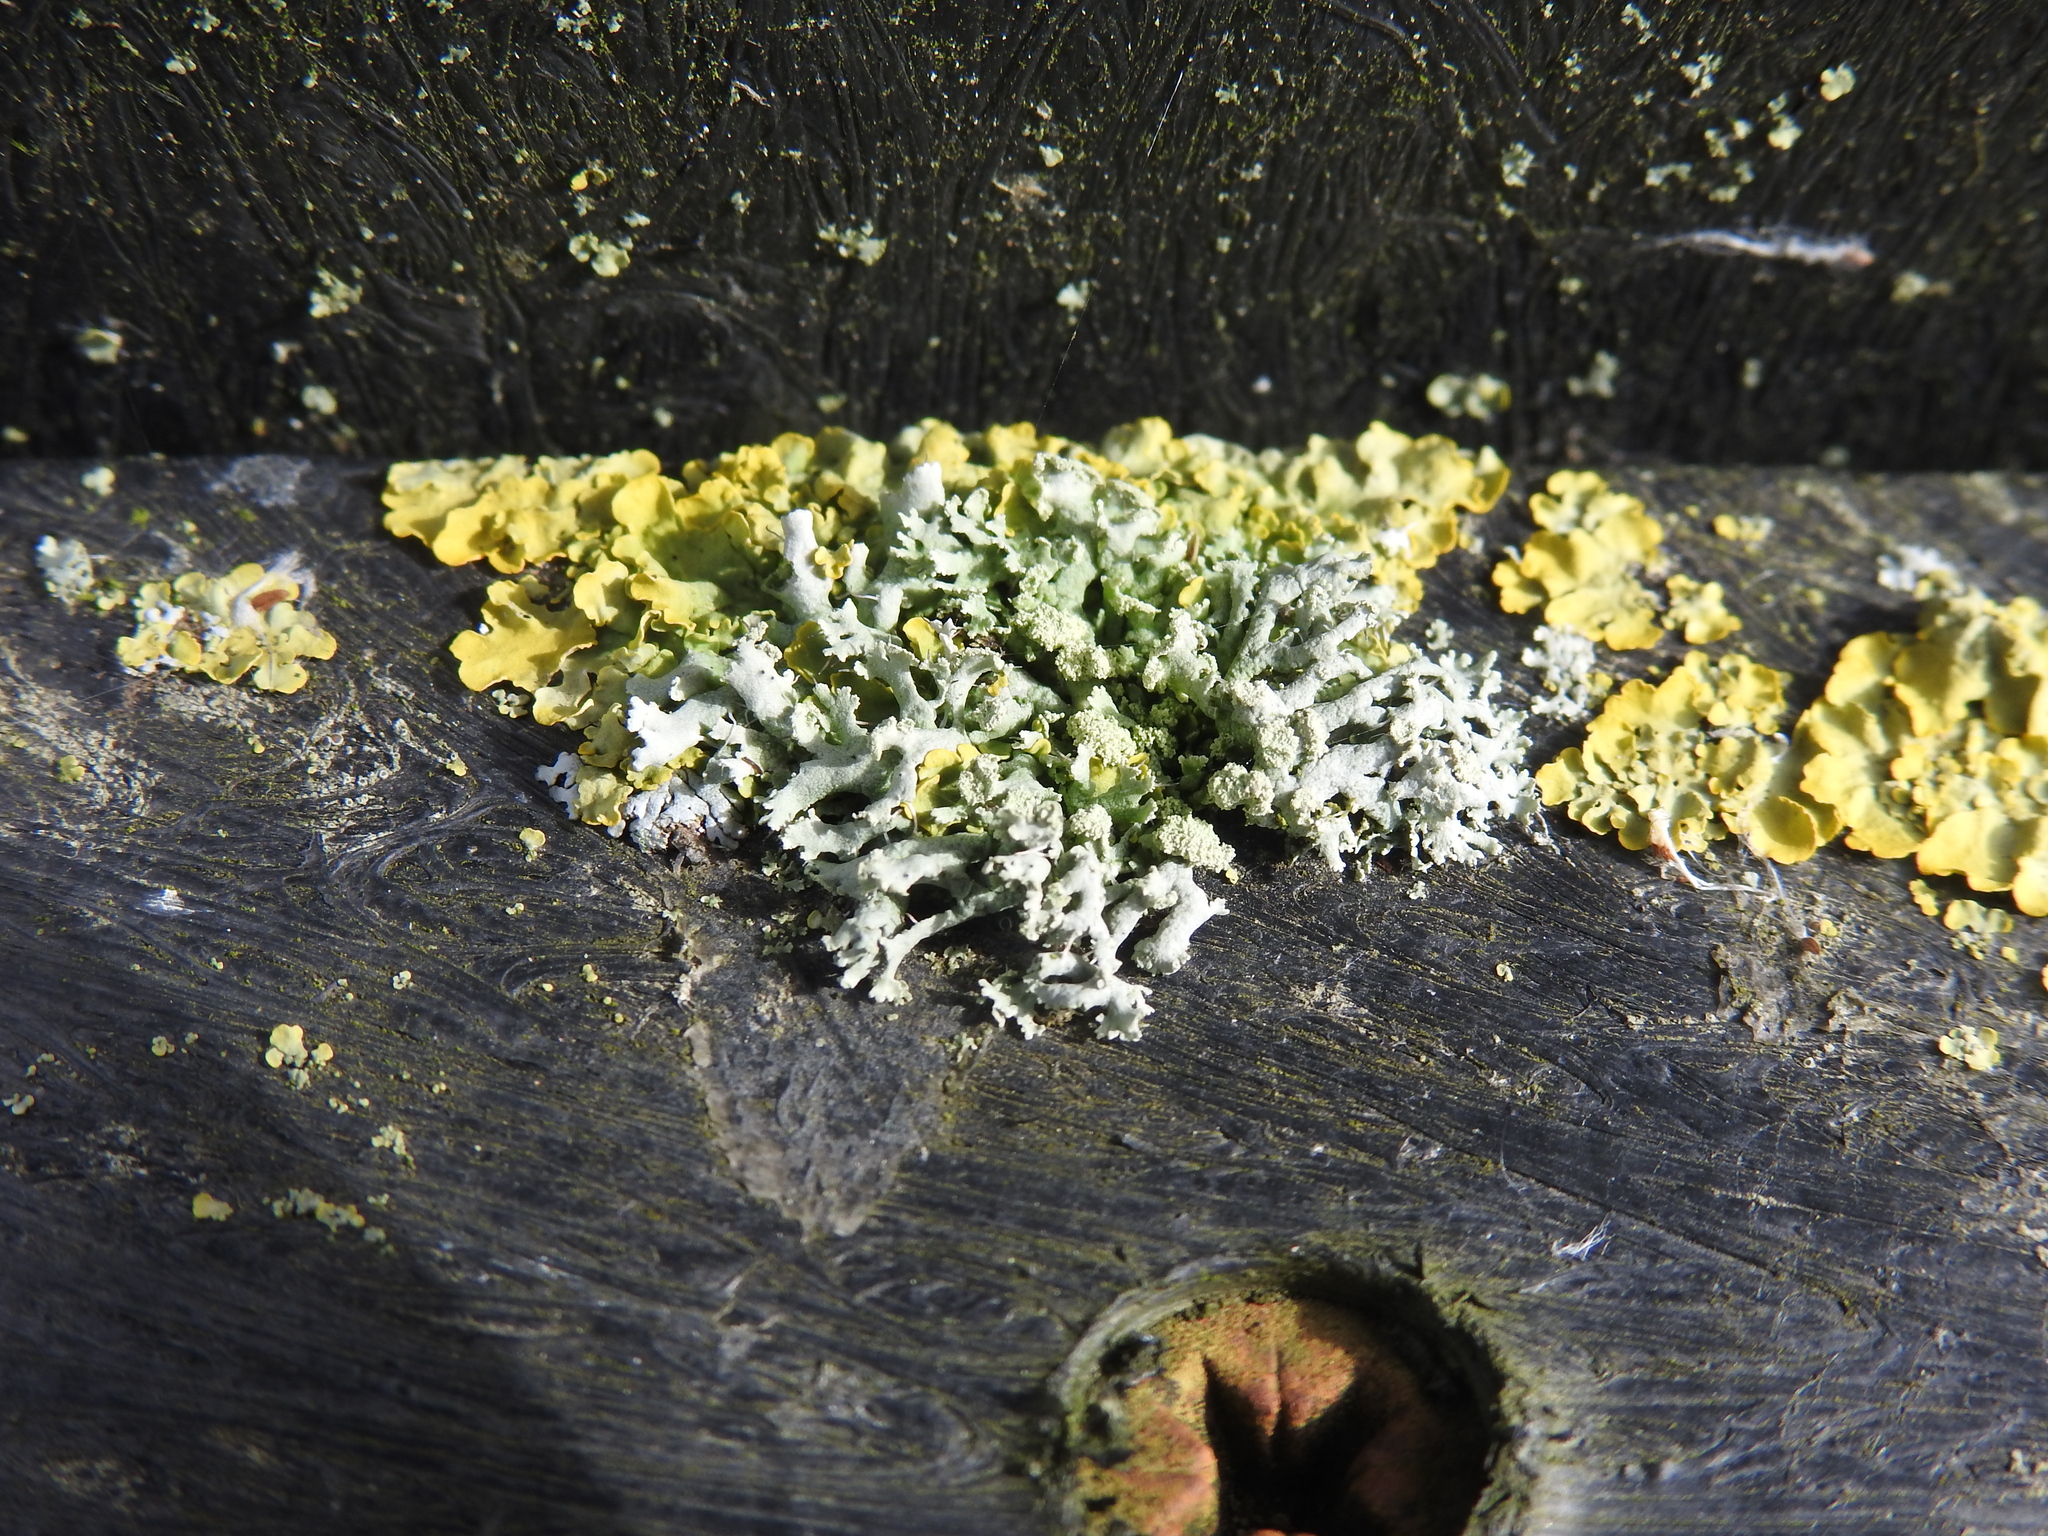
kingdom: Fungi
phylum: Ascomycota
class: Lecanoromycetes
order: Caliciales
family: Physciaceae
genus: Physcia
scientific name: Physcia tenella
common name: Fringed rosette lichen
